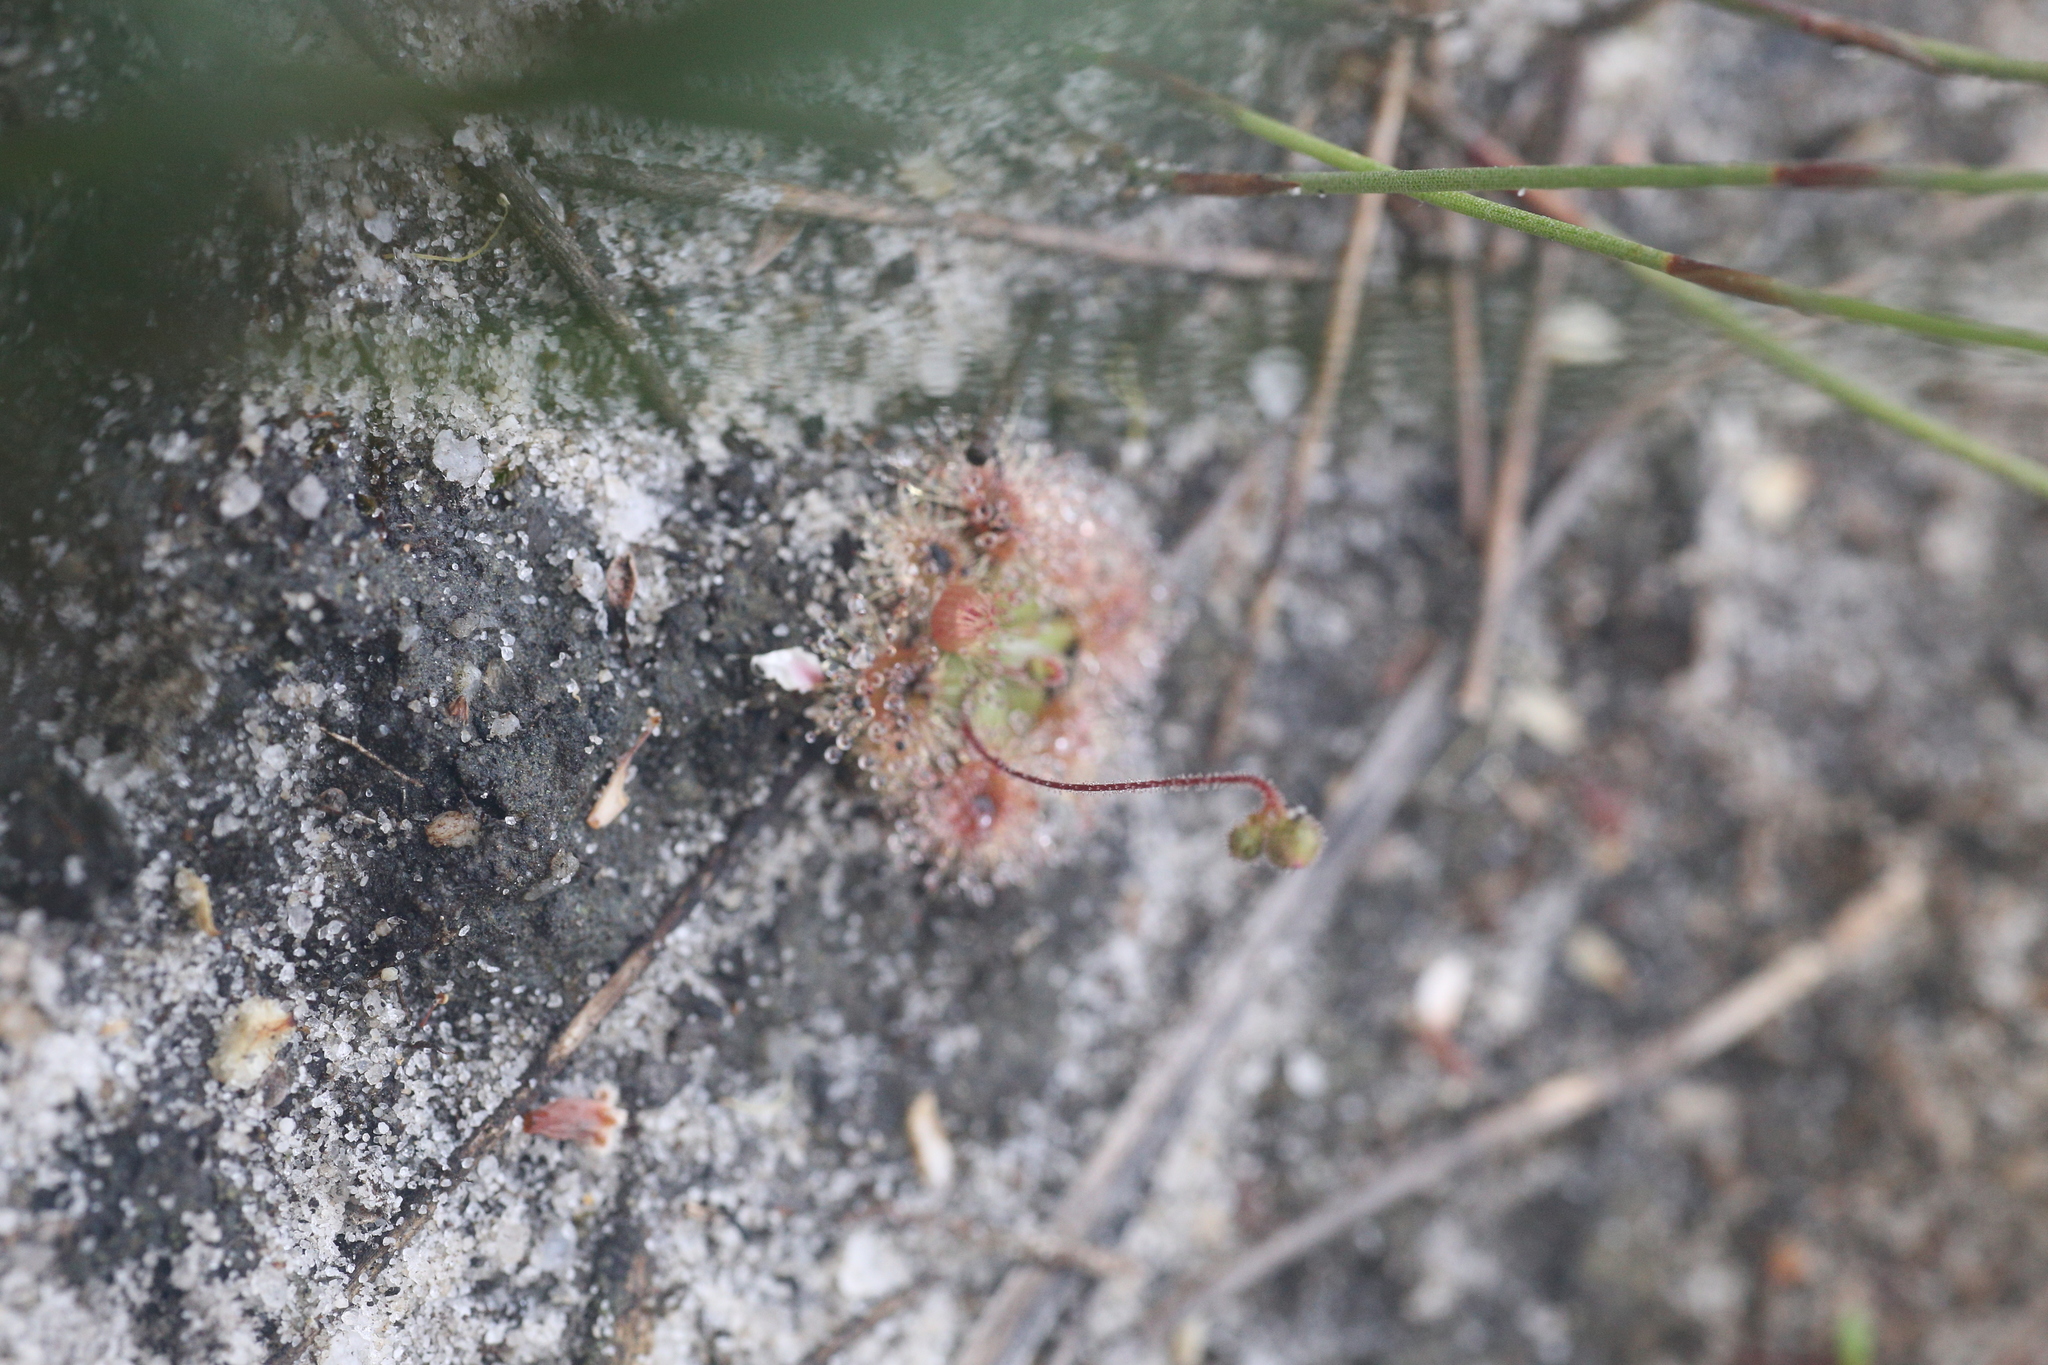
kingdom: Plantae
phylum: Tracheophyta
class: Magnoliopsida
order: Caryophyllales
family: Droseraceae
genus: Drosera
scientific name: Drosera pulchella
